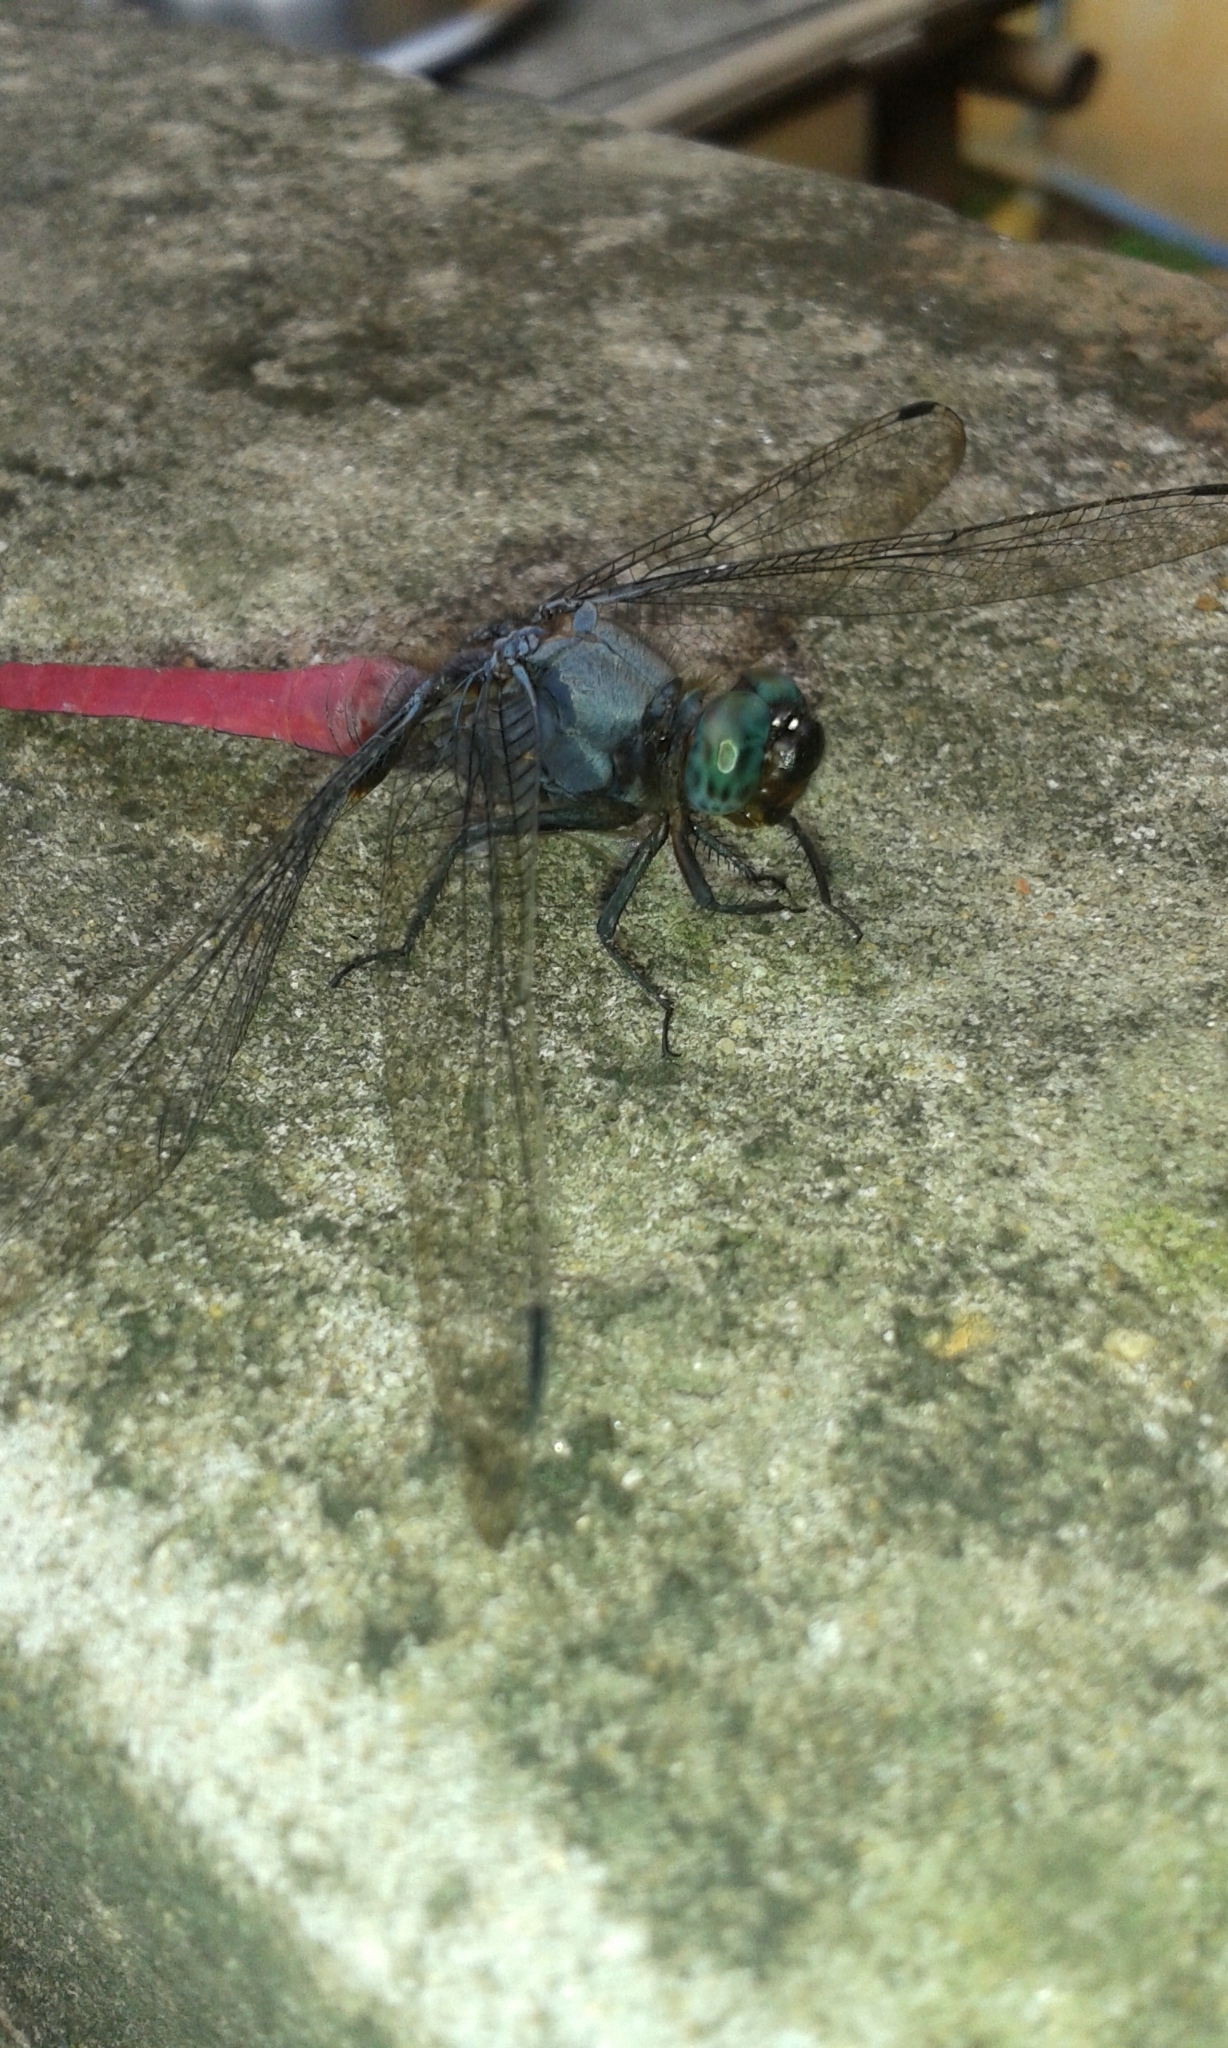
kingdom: Animalia
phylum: Arthropoda
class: Insecta
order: Odonata
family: Libellulidae
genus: Orthetrum
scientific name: Orthetrum pruinosum
